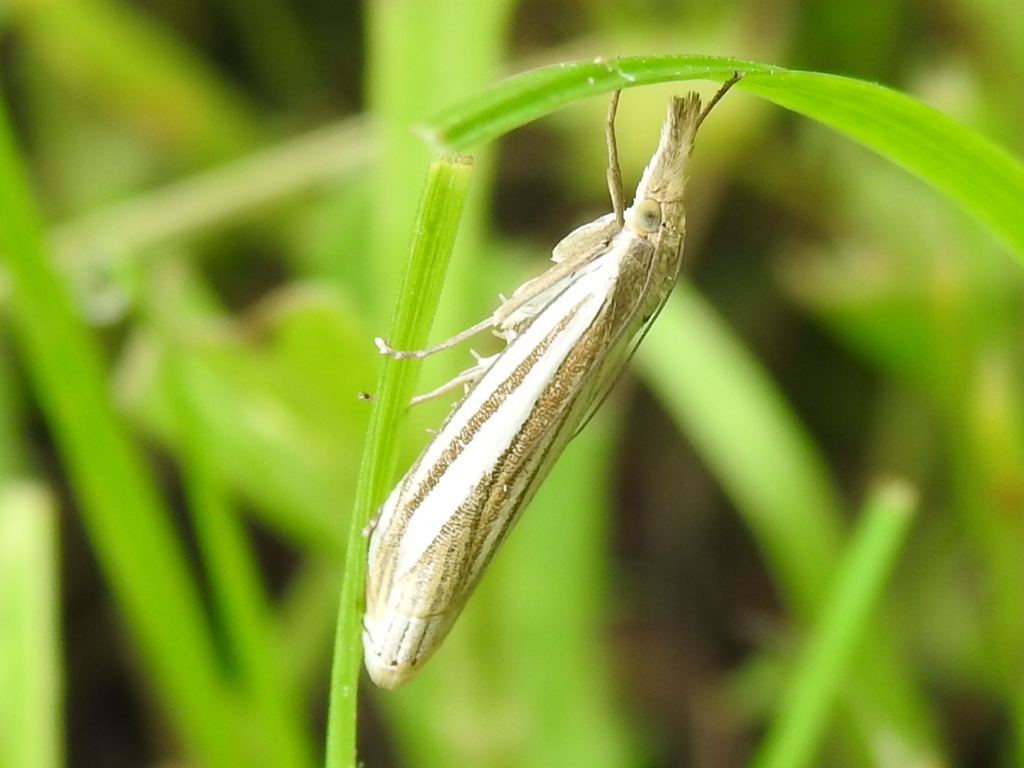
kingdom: Animalia
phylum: Arthropoda
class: Insecta
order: Lepidoptera
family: Crambidae
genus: Crambus
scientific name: Crambus laqueatellus
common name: Eastern grass-veneer
